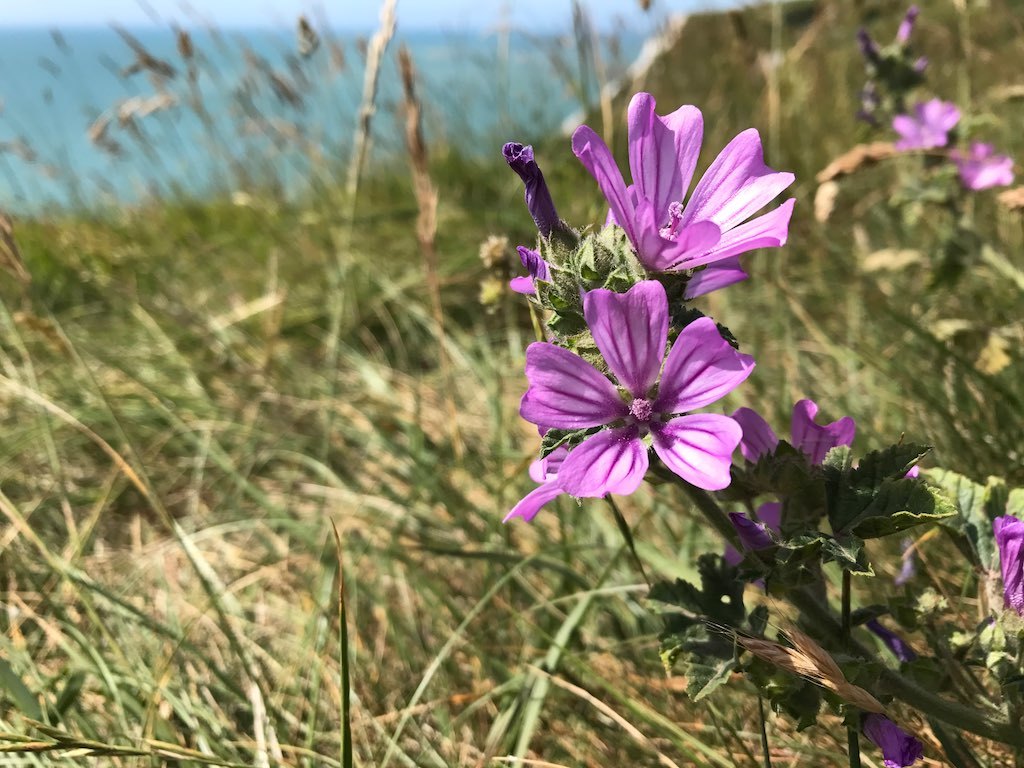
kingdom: Plantae
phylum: Tracheophyta
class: Magnoliopsida
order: Malvales
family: Malvaceae
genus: Malva
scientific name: Malva sylvestris
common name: Common mallow
